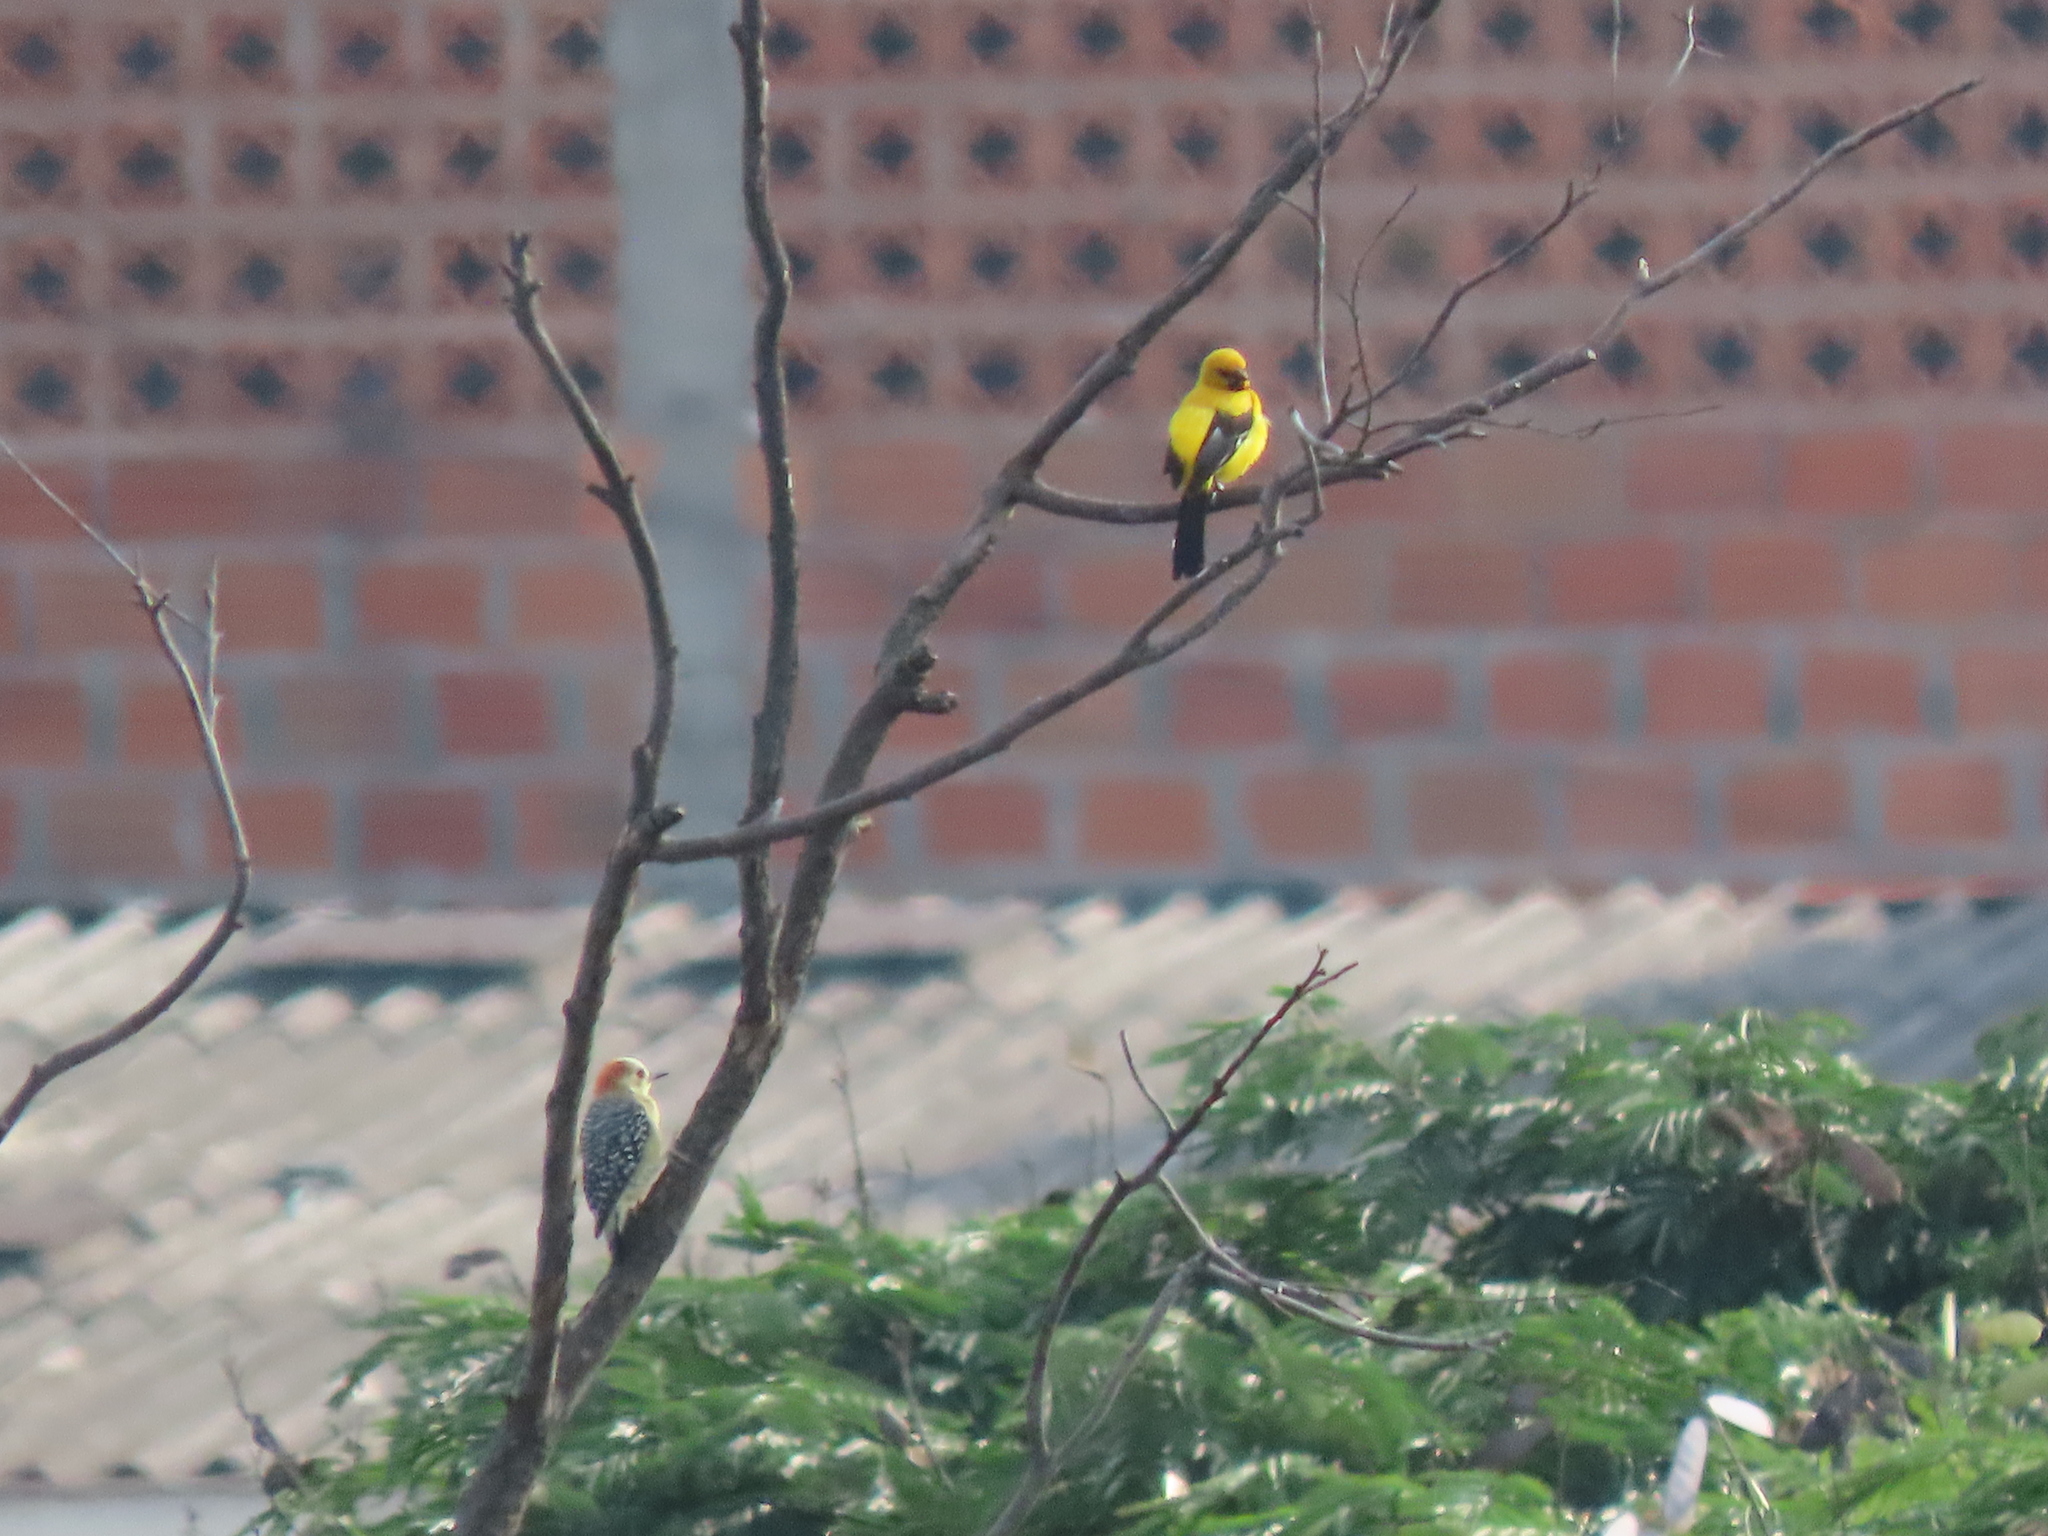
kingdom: Animalia
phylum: Chordata
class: Aves
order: Passeriformes
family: Icteridae
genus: Icterus
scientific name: Icterus nigrogularis
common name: Yellow oriole
